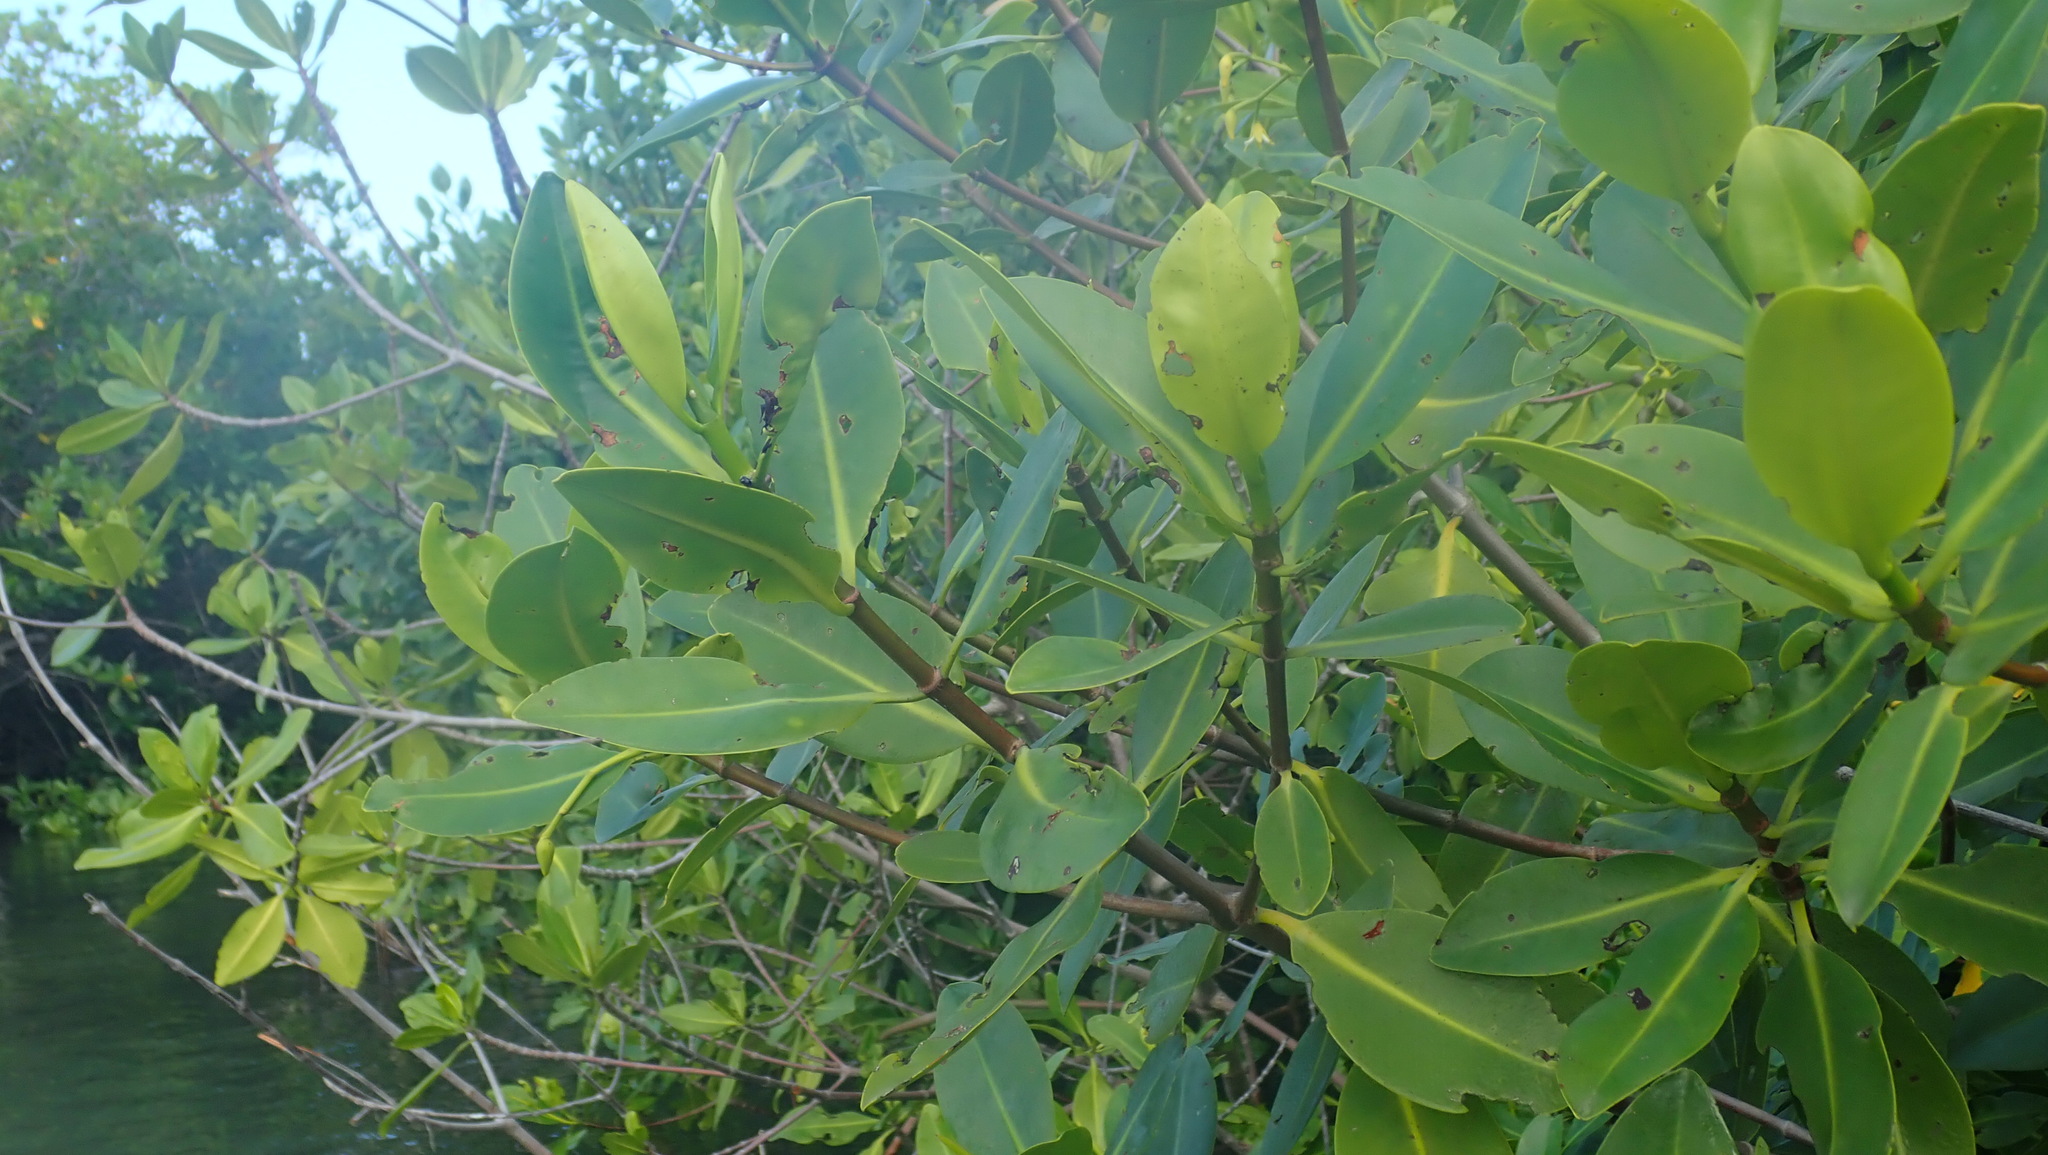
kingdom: Plantae
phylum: Tracheophyta
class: Magnoliopsida
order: Malpighiales
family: Rhizophoraceae
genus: Rhizophora
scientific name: Rhizophora mangle
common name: Red mangrove
